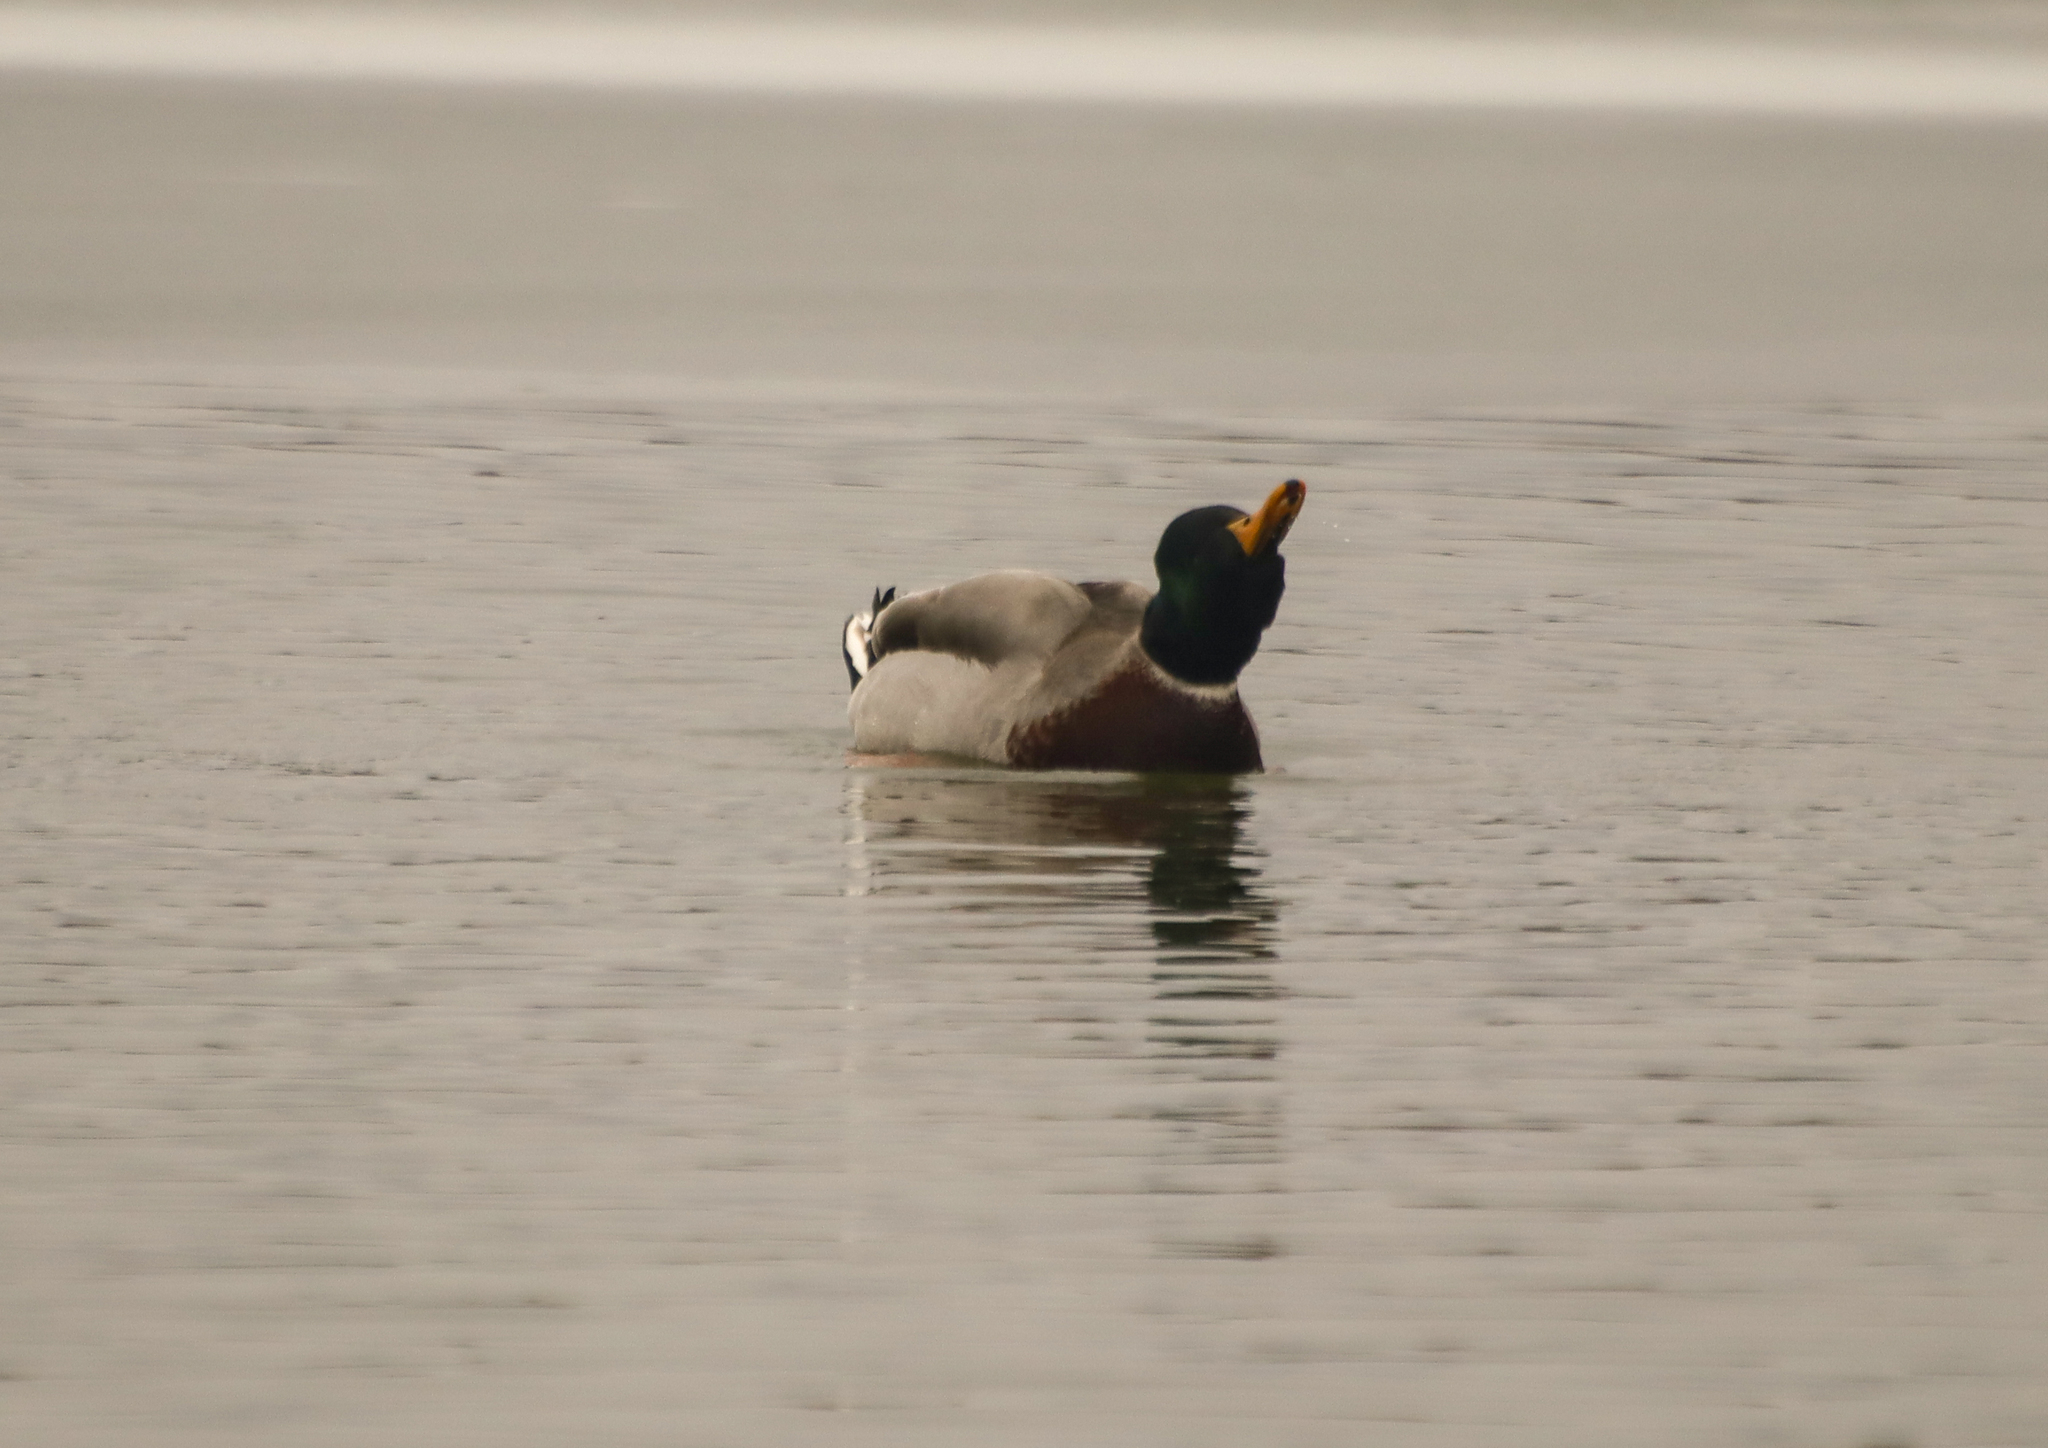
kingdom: Animalia
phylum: Chordata
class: Aves
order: Anseriformes
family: Anatidae
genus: Anas
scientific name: Anas platyrhynchos
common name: Mallard
